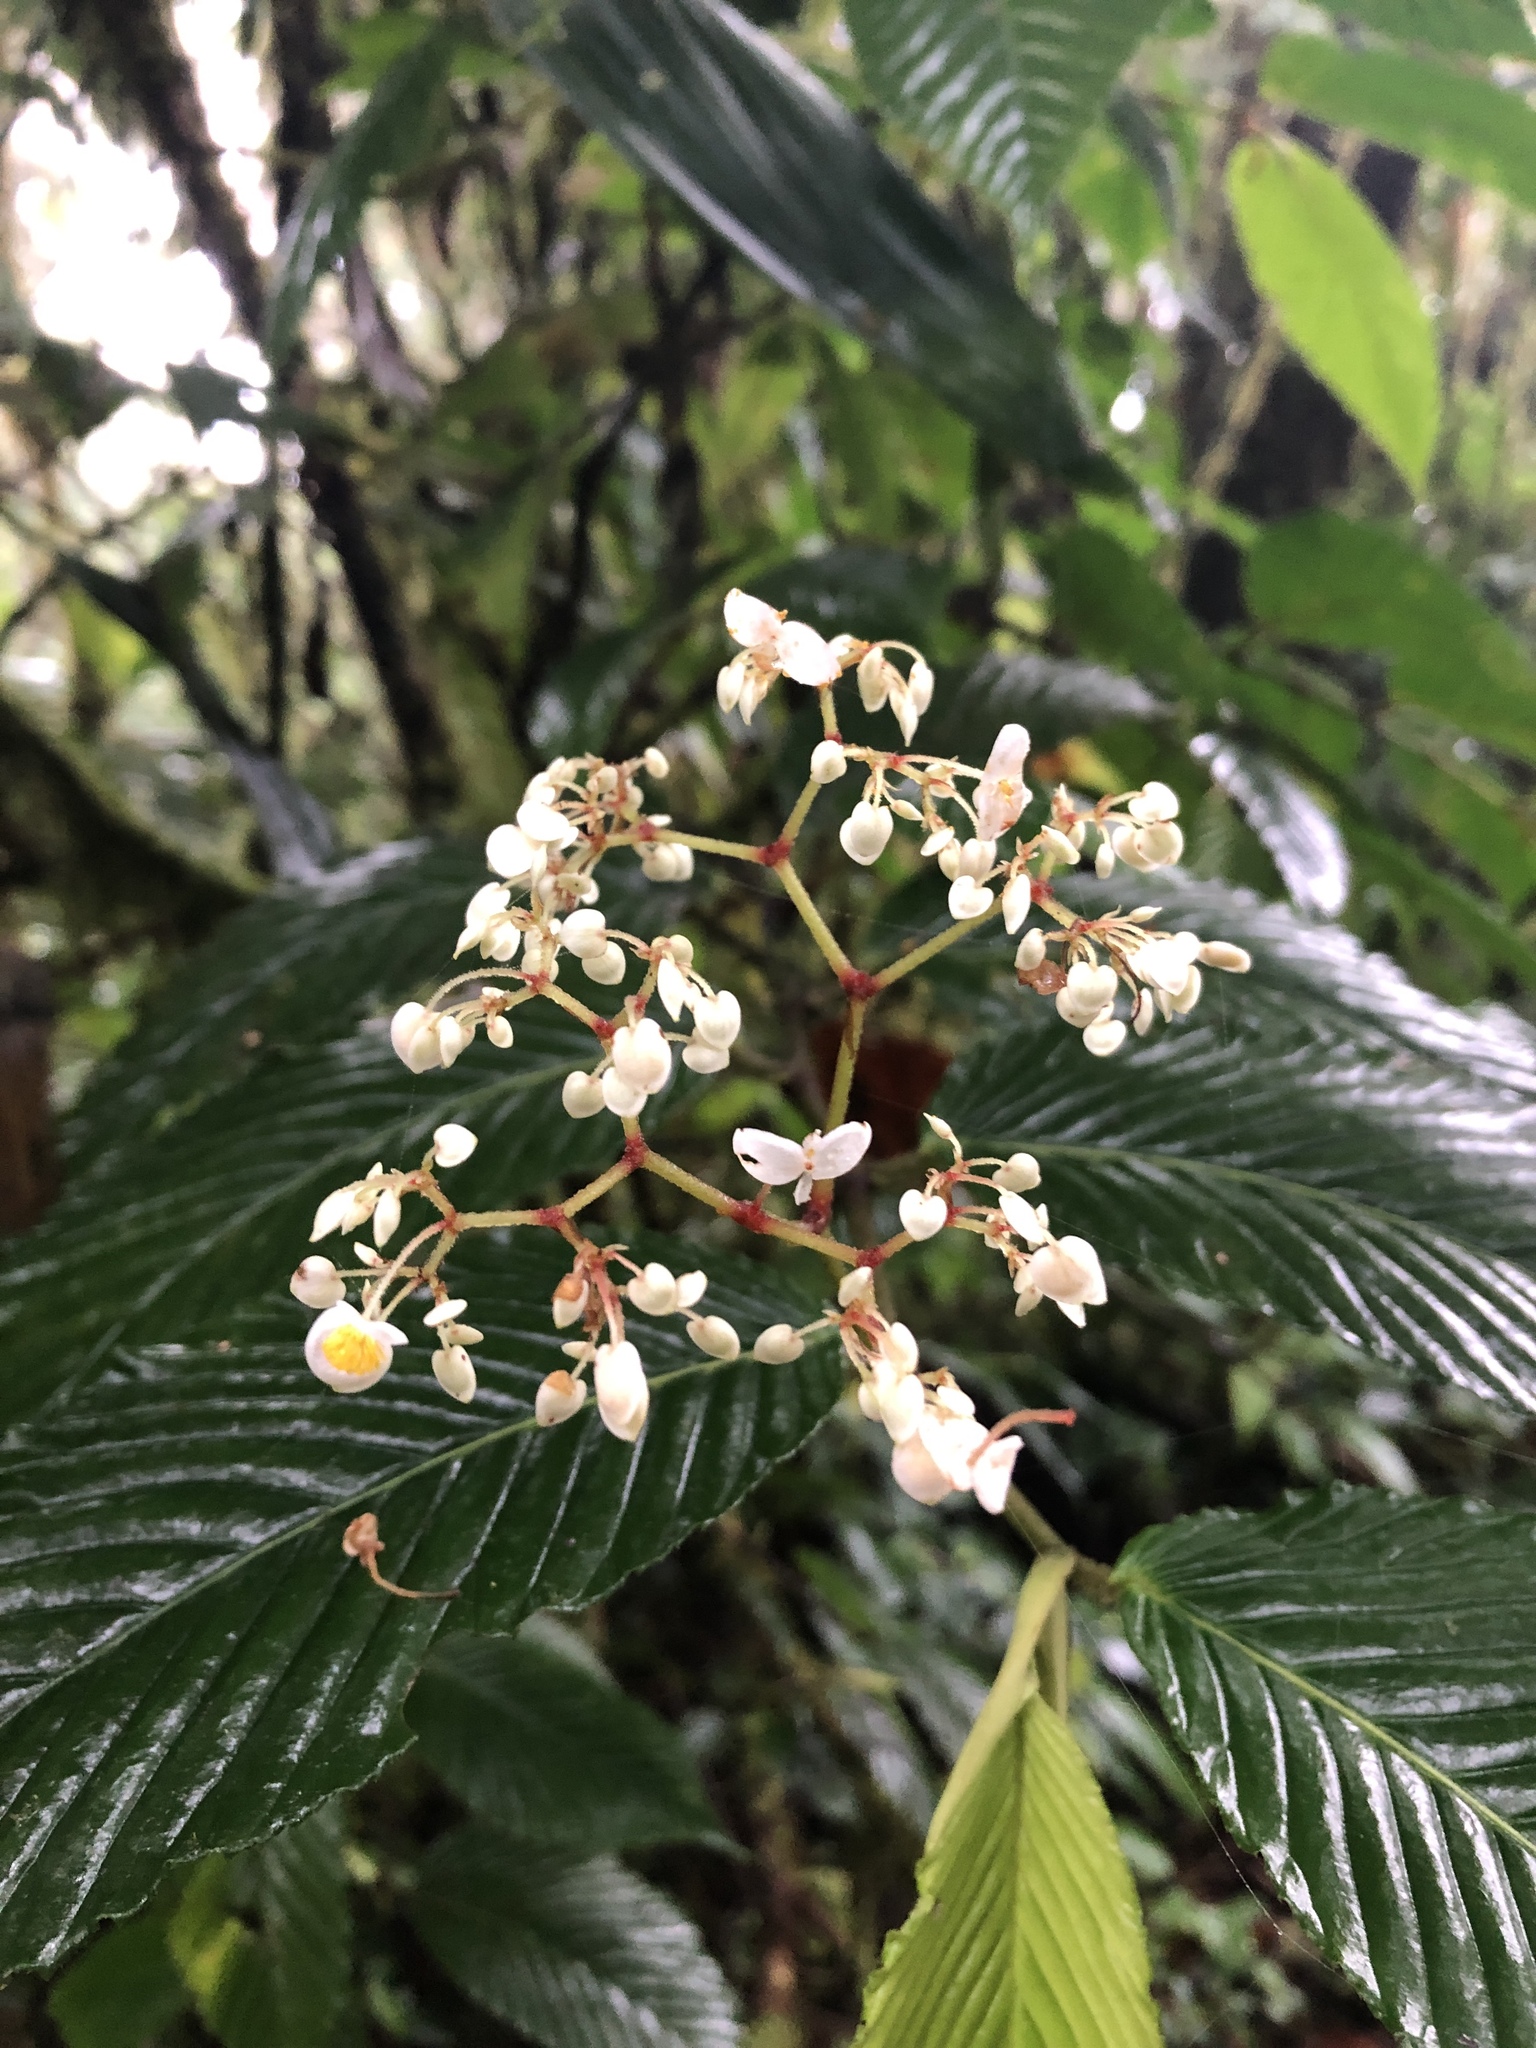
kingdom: Plantae
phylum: Tracheophyta
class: Magnoliopsida
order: Cucurbitales
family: Begoniaceae
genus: Begonia
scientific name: Begonia cooperi
